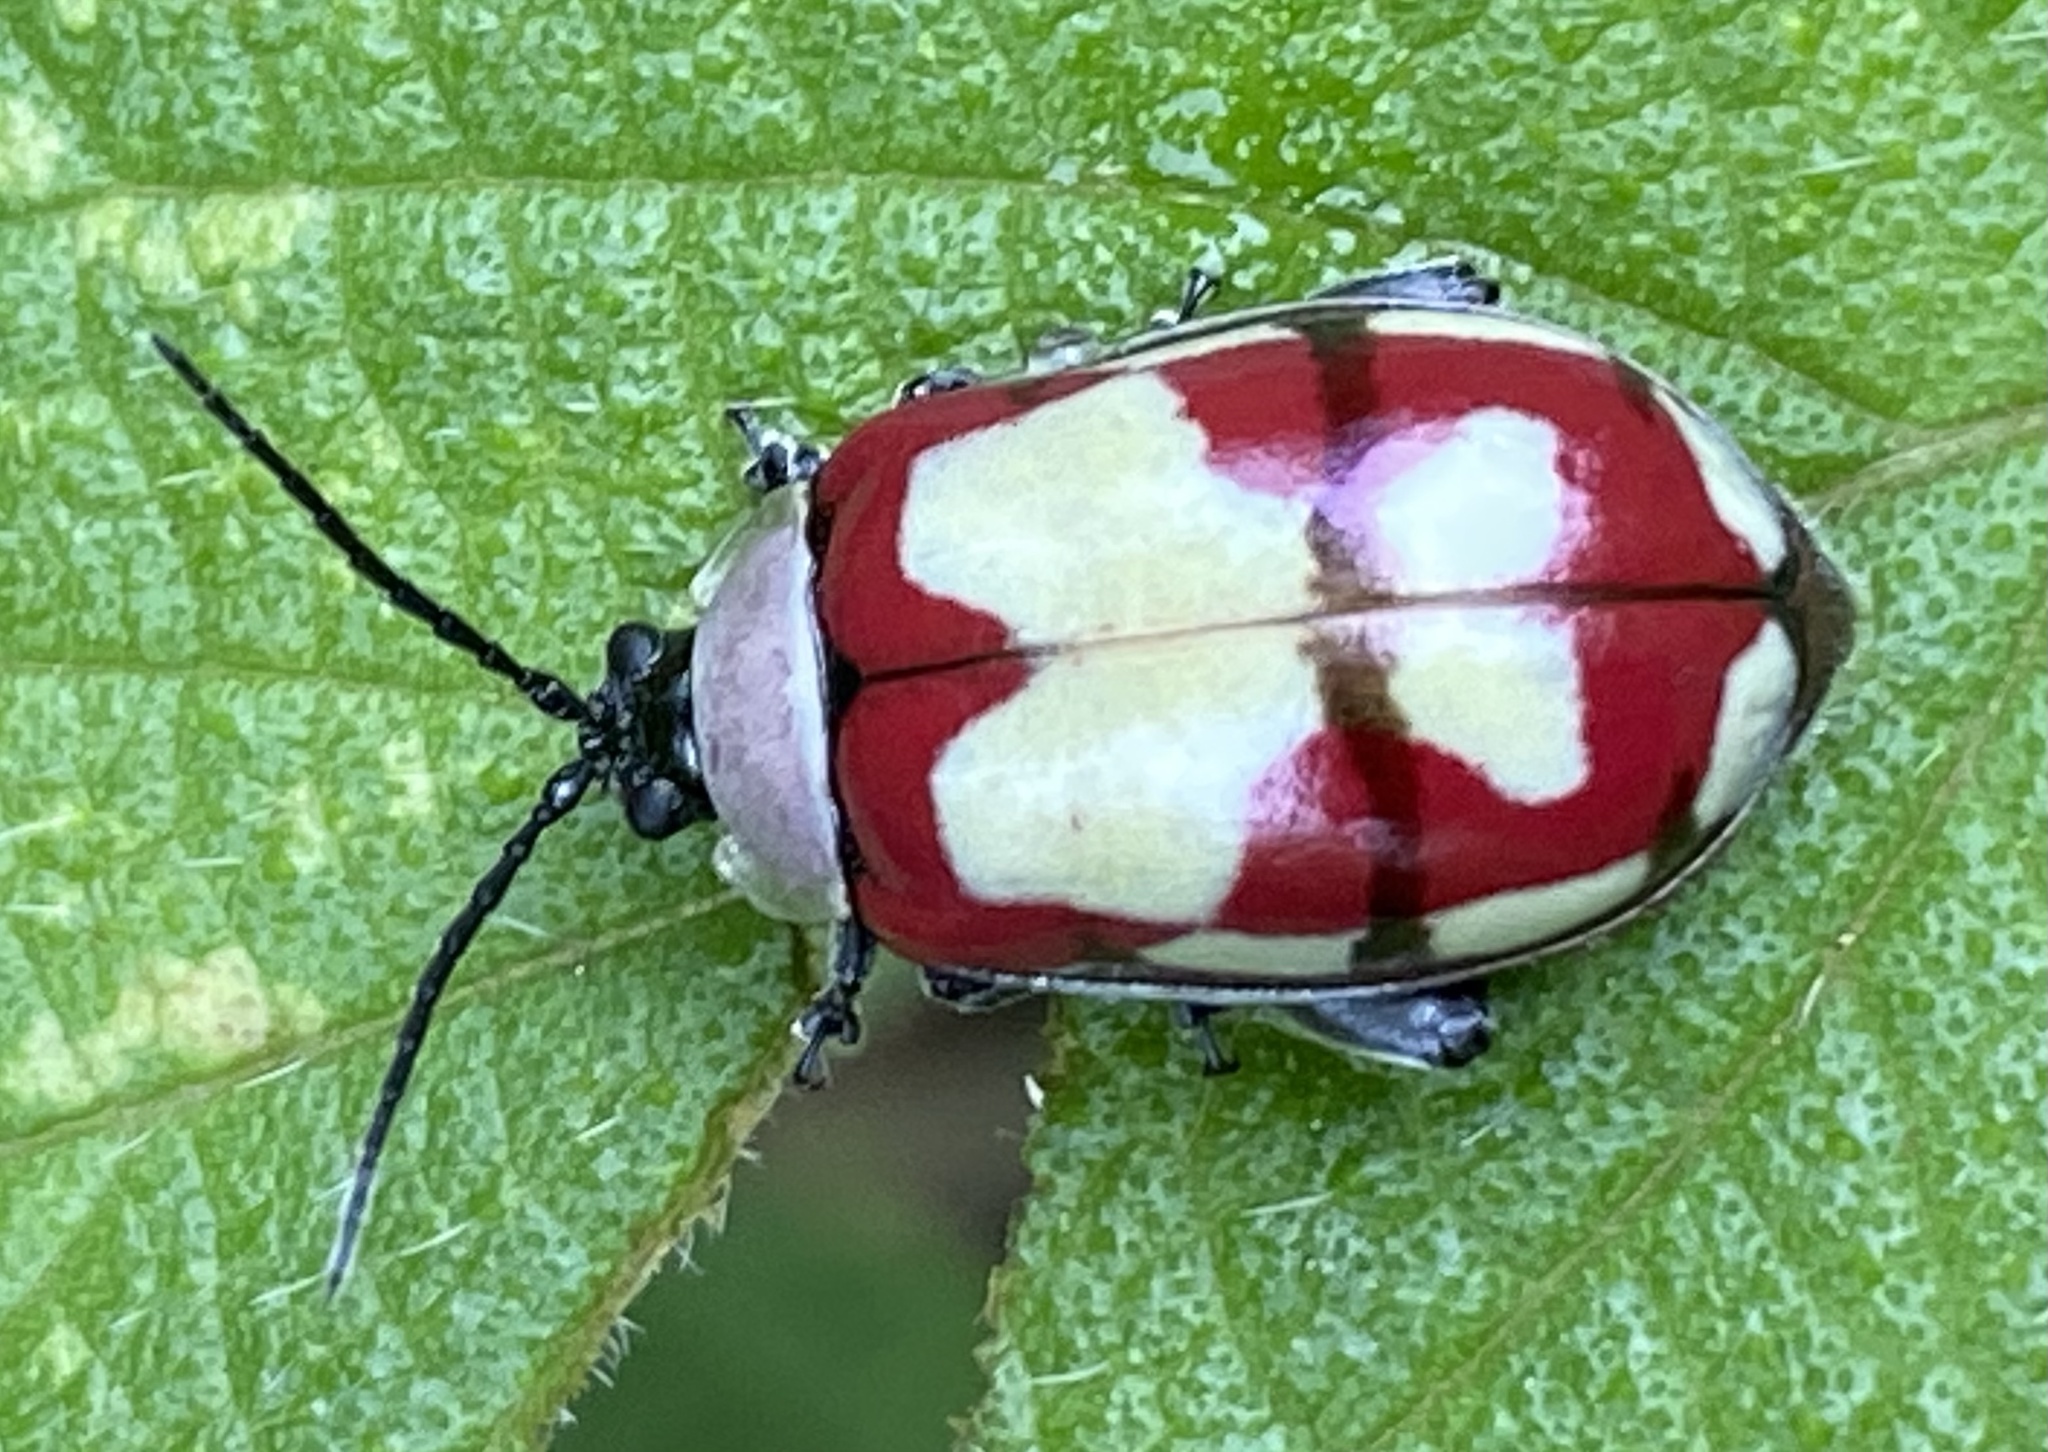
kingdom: Animalia
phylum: Arthropoda
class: Insecta
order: Coleoptera
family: Chrysomelidae
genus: Alagoasa
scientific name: Alagoasa scissa
